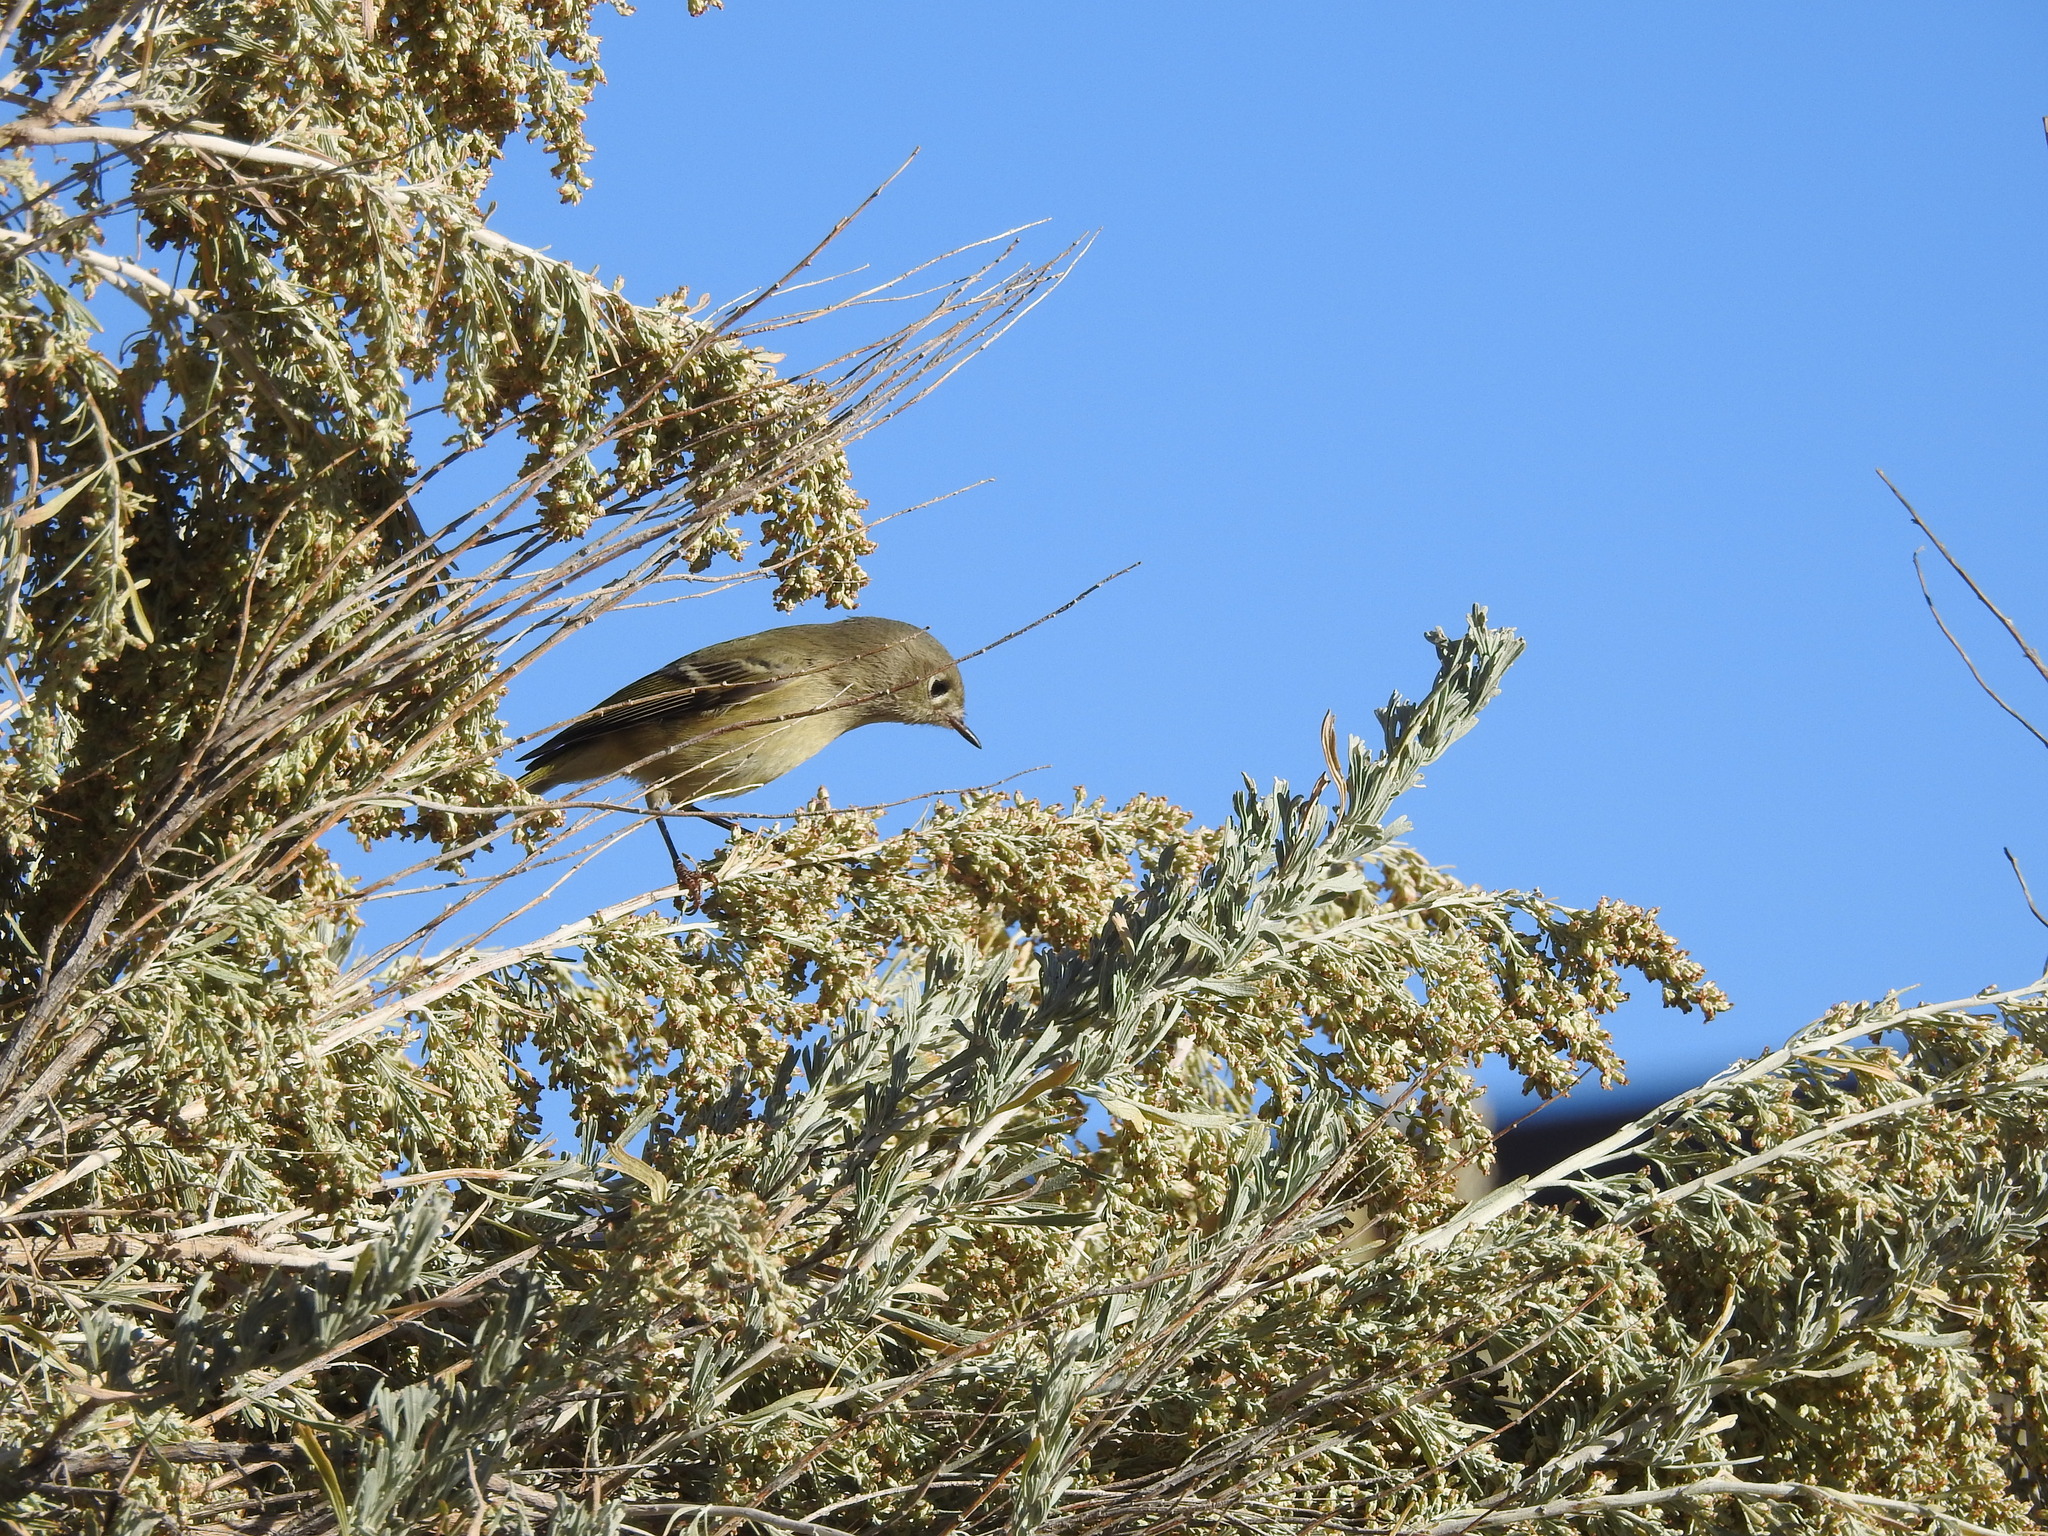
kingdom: Animalia
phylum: Chordata
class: Aves
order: Passeriformes
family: Regulidae
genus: Regulus
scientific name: Regulus calendula
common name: Ruby-crowned kinglet
